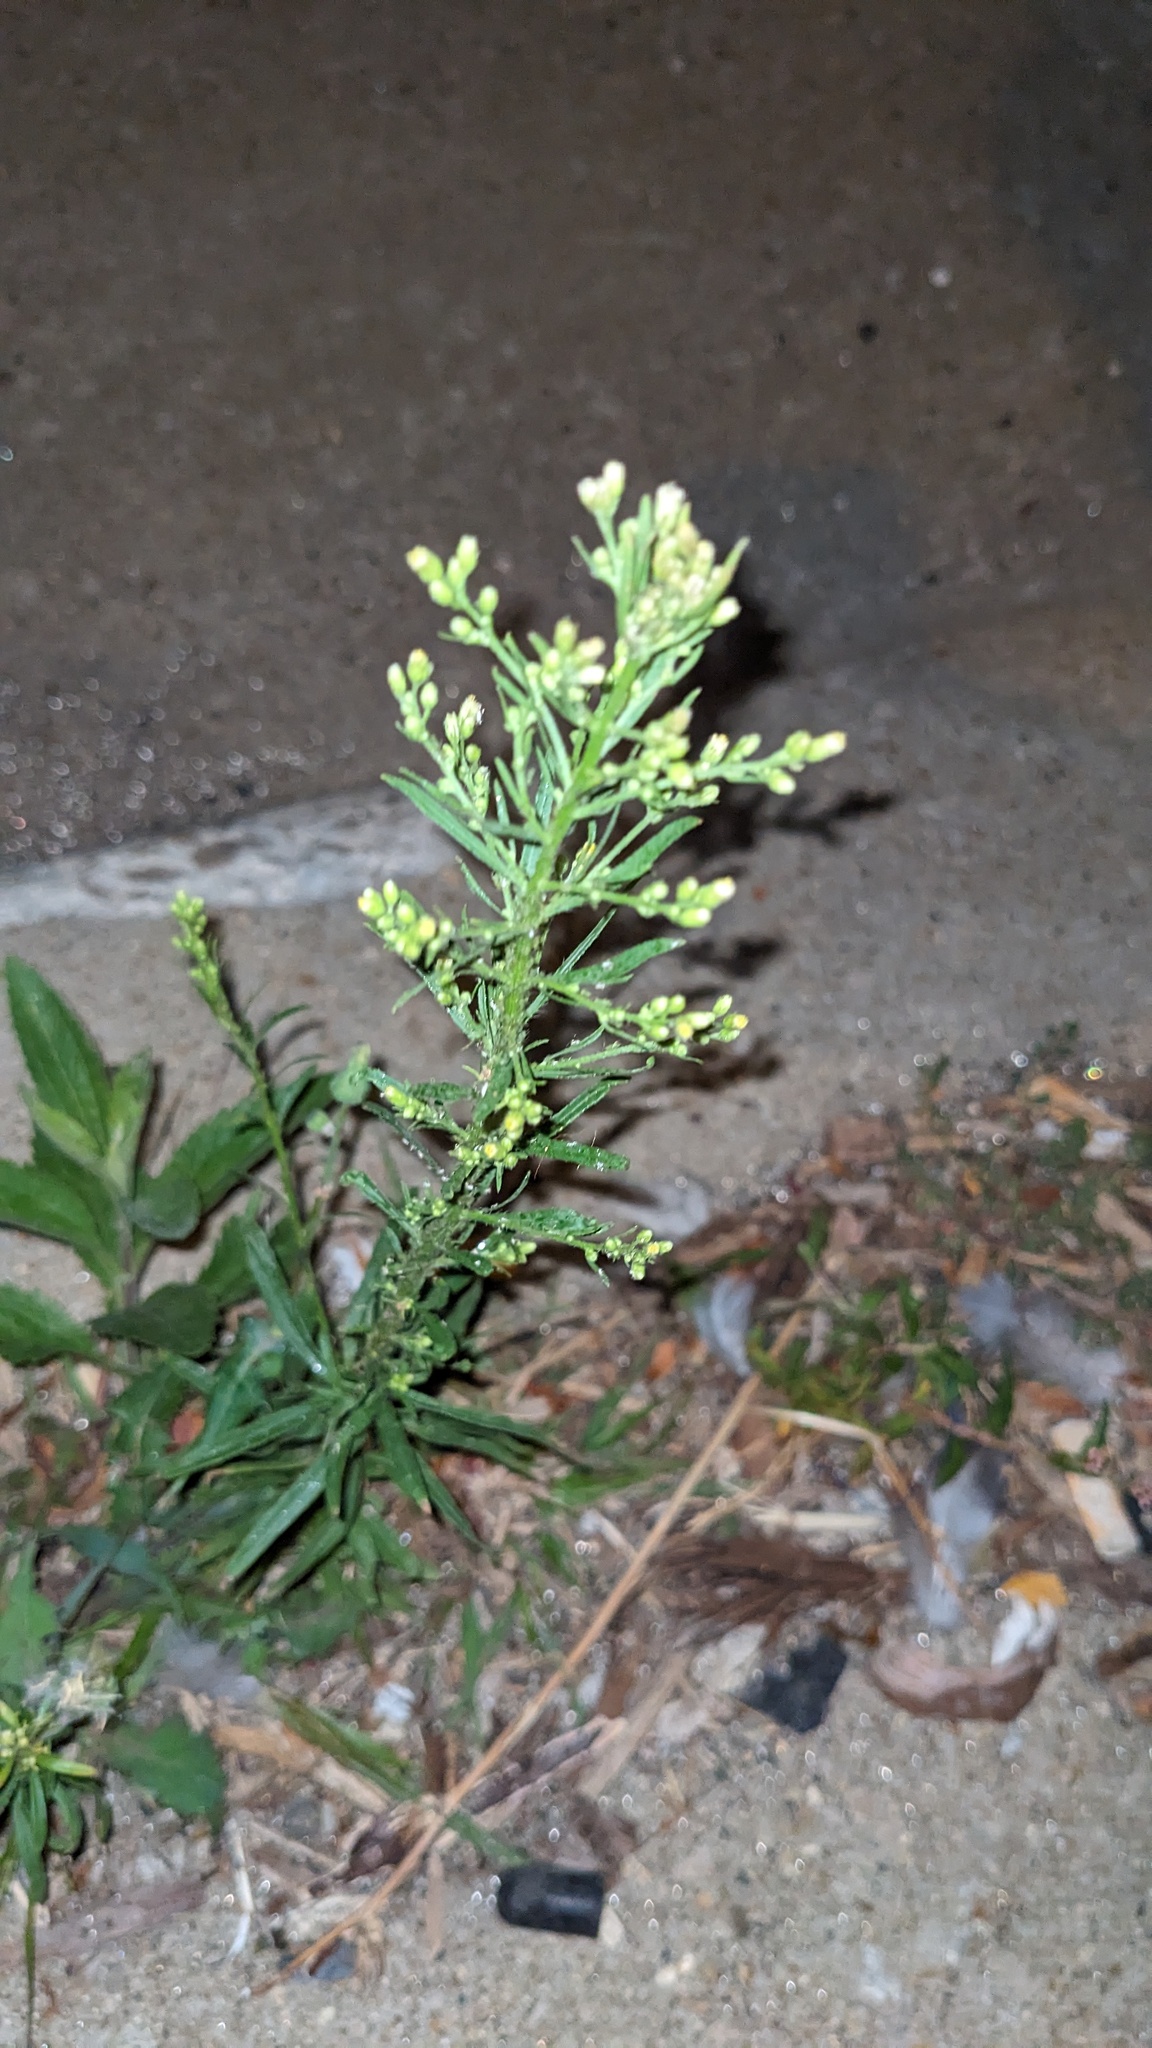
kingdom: Plantae
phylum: Tracheophyta
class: Magnoliopsida
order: Asterales
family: Asteraceae
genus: Erigeron
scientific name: Erigeron canadensis
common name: Canadian fleabane
